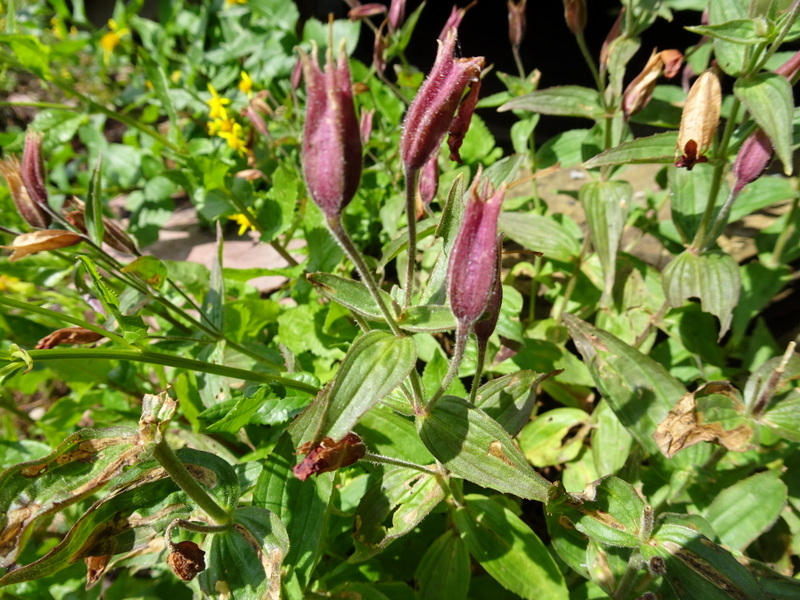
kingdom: Plantae
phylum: Tracheophyta
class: Magnoliopsida
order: Lamiales
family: Phrymaceae
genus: Erythranthe
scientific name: Erythranthe lewisii
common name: Lewis's monkey-flower
